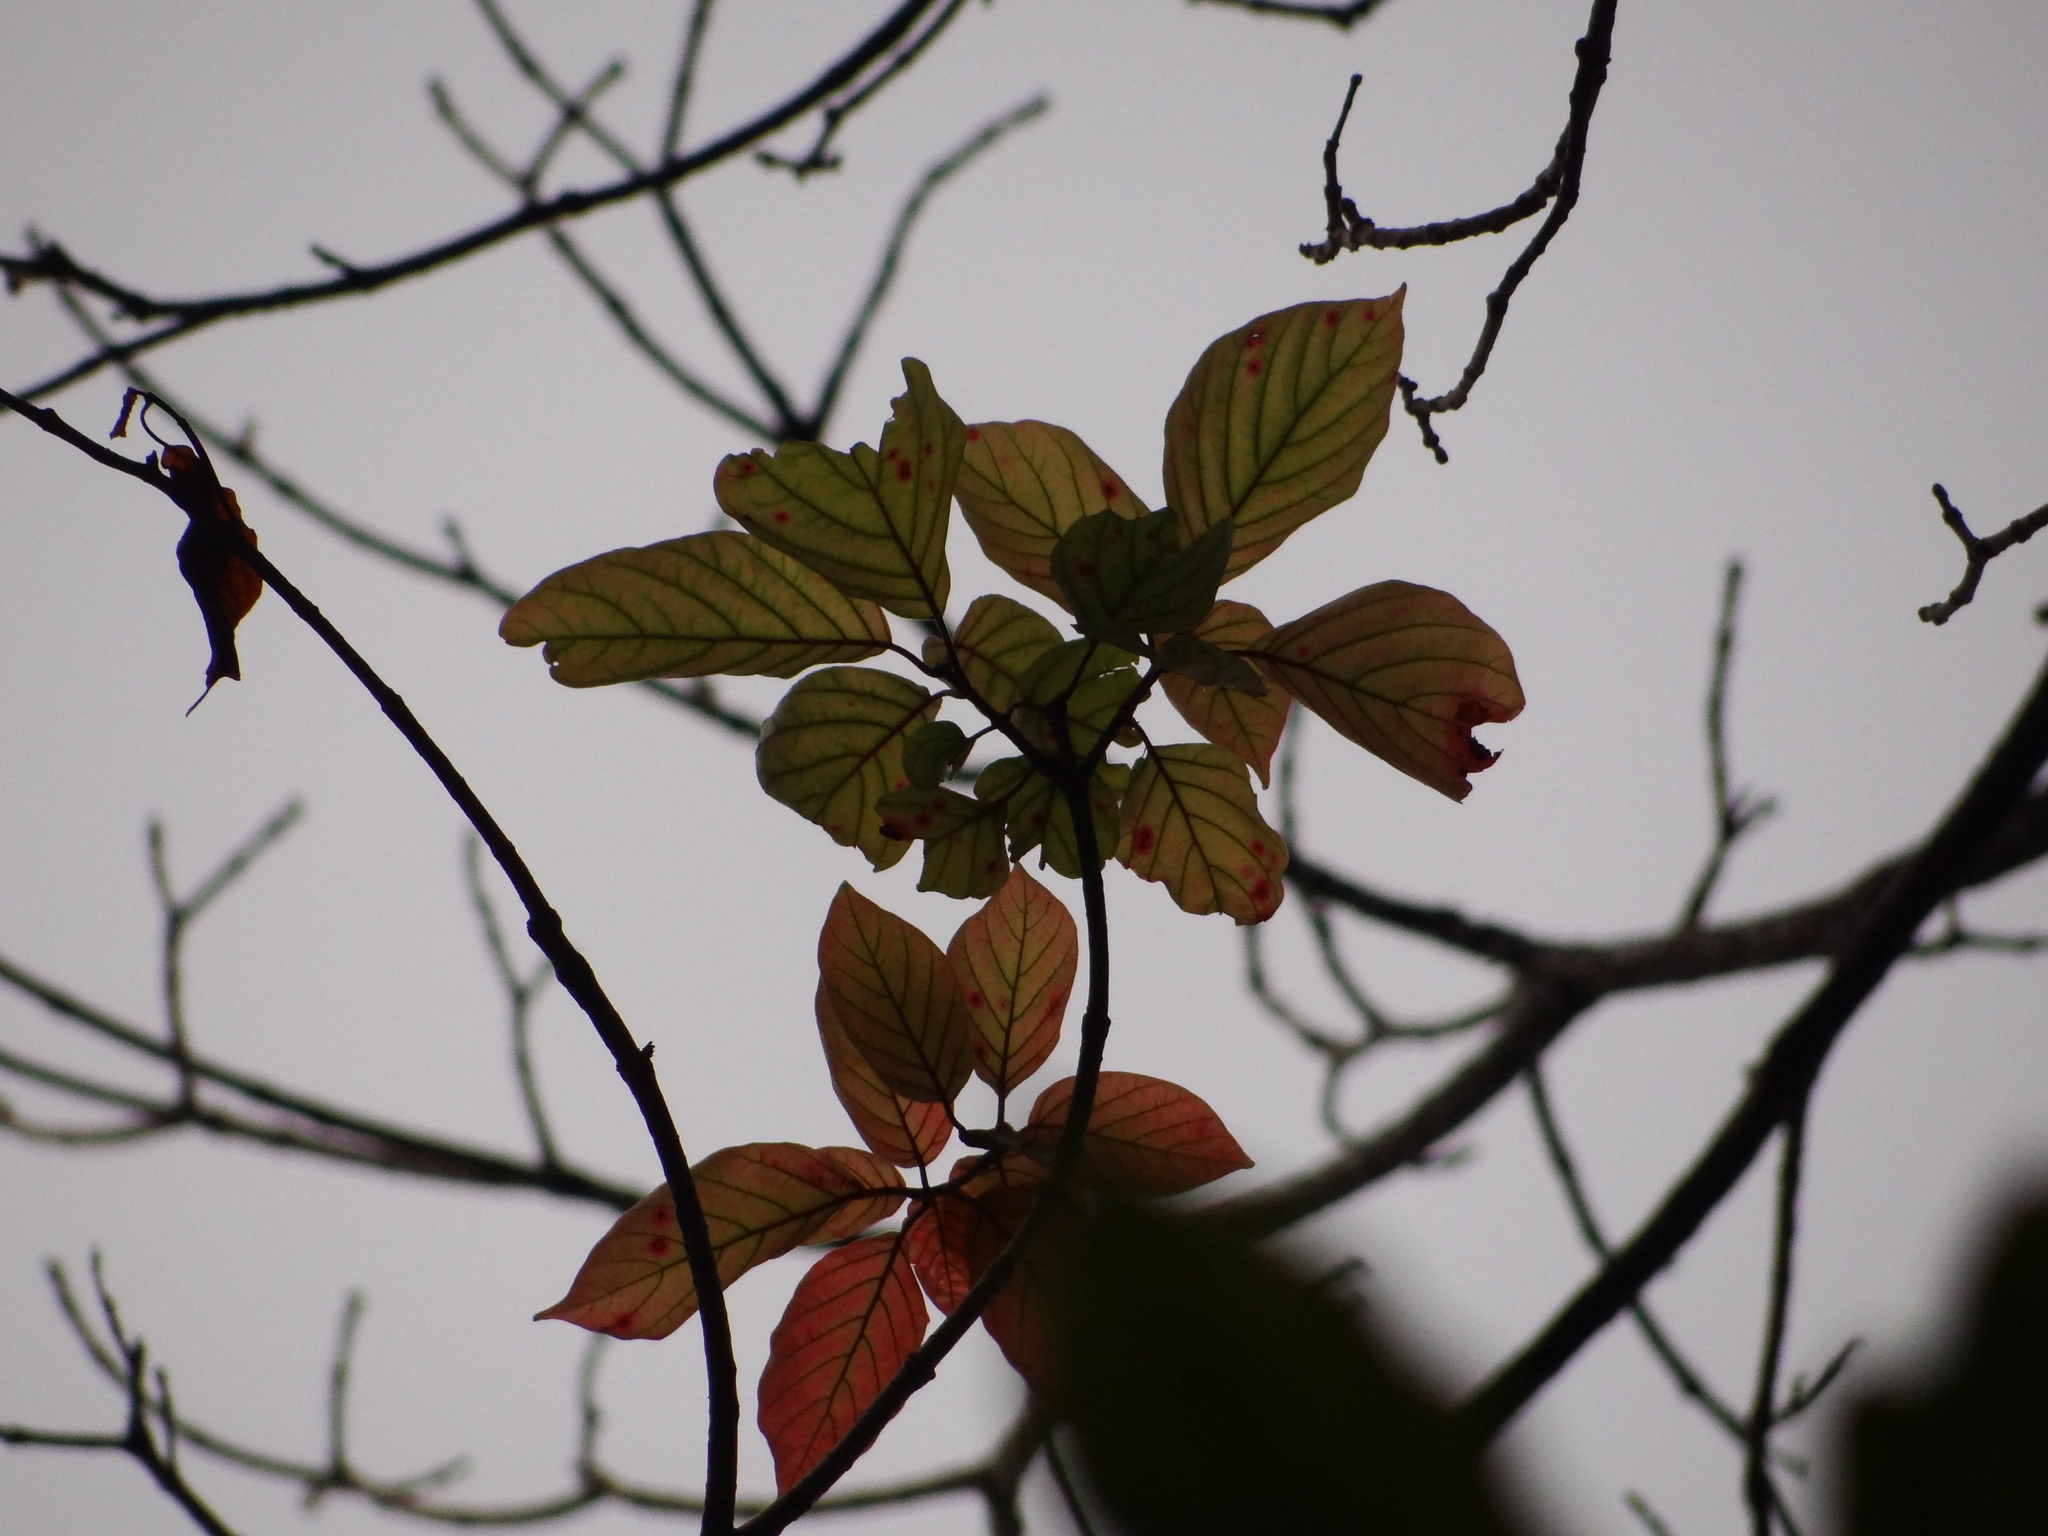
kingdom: Plantae
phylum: Tracheophyta
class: Magnoliopsida
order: Gentianales
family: Rubiaceae
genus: Adina
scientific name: Adina racemosa
